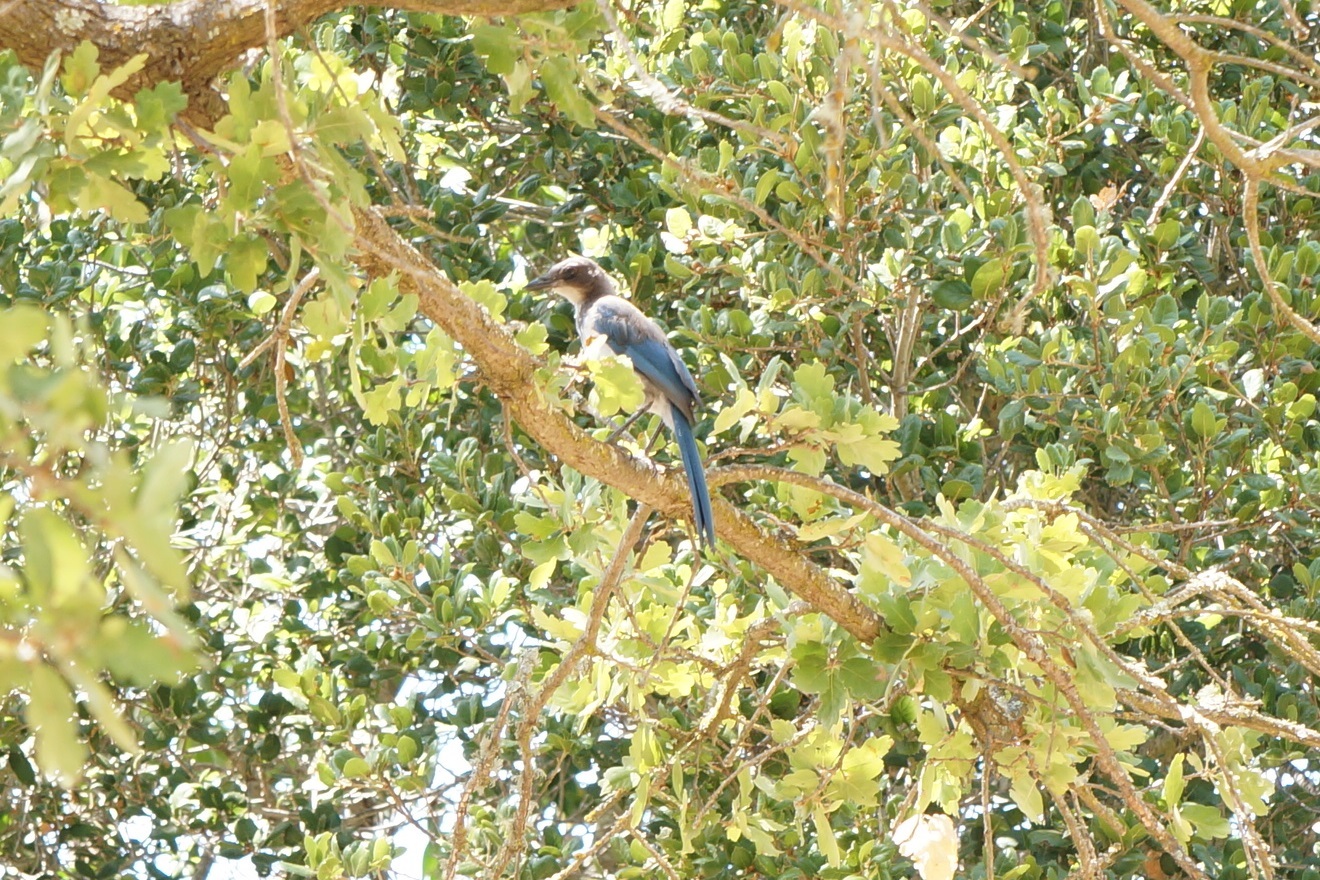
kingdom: Animalia
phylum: Chordata
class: Aves
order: Passeriformes
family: Corvidae
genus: Aphelocoma
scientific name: Aphelocoma californica
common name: California scrub-jay
